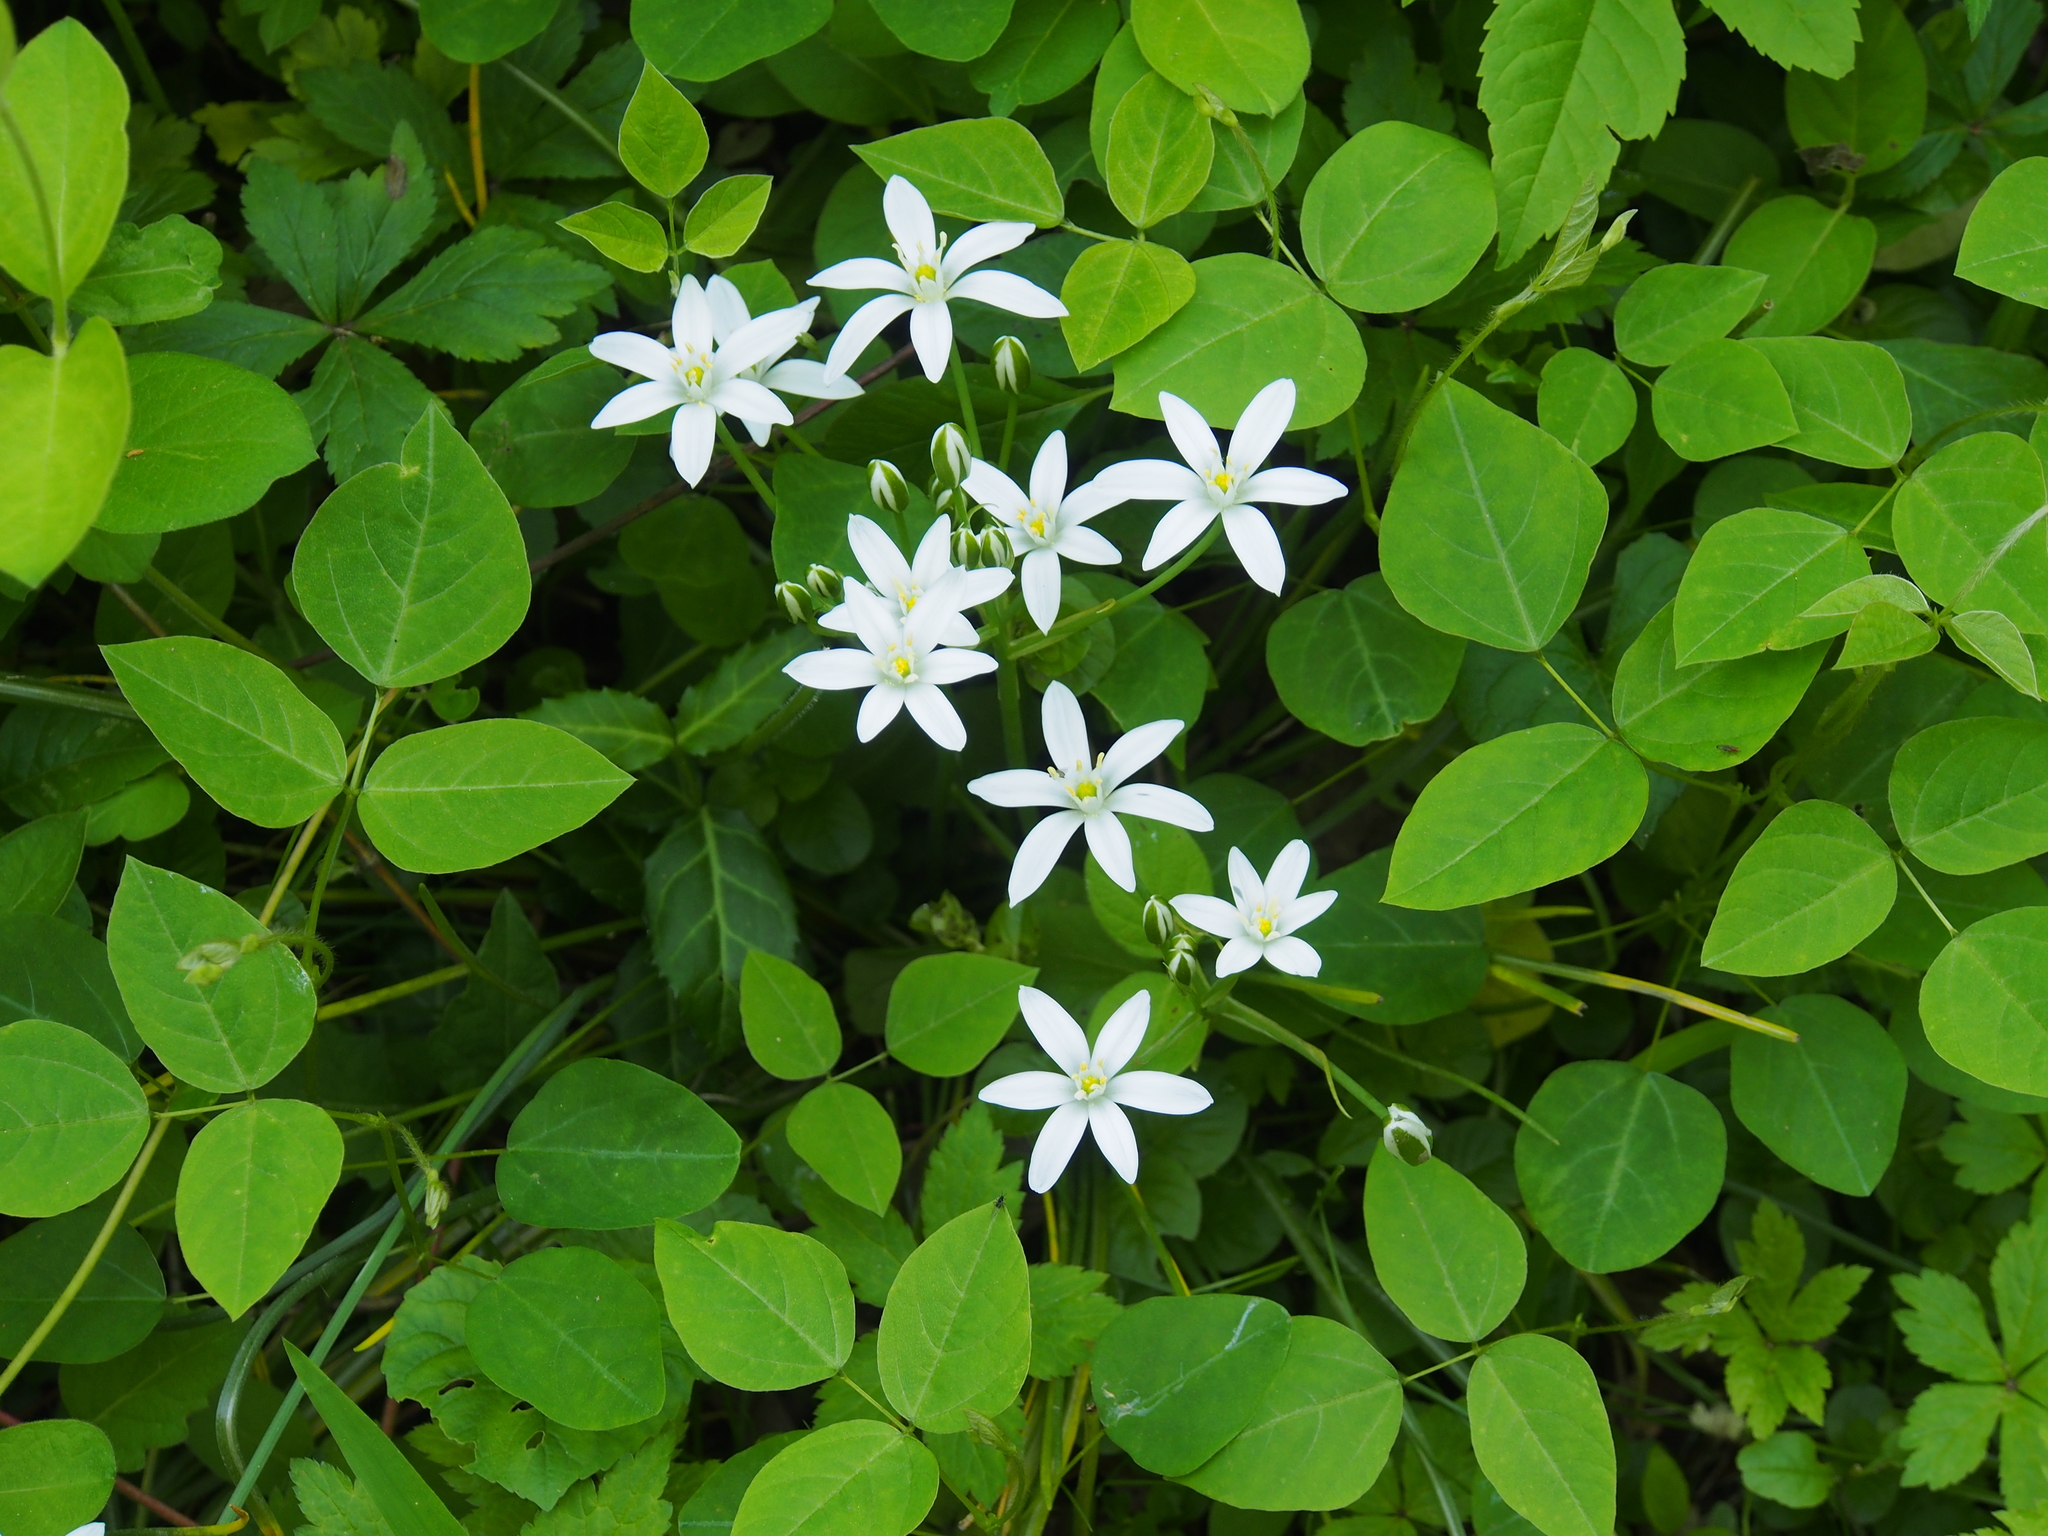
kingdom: Plantae
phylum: Tracheophyta
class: Liliopsida
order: Asparagales
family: Asparagaceae
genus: Ornithogalum
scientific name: Ornithogalum umbellatum
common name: Garden star-of-bethlehem
